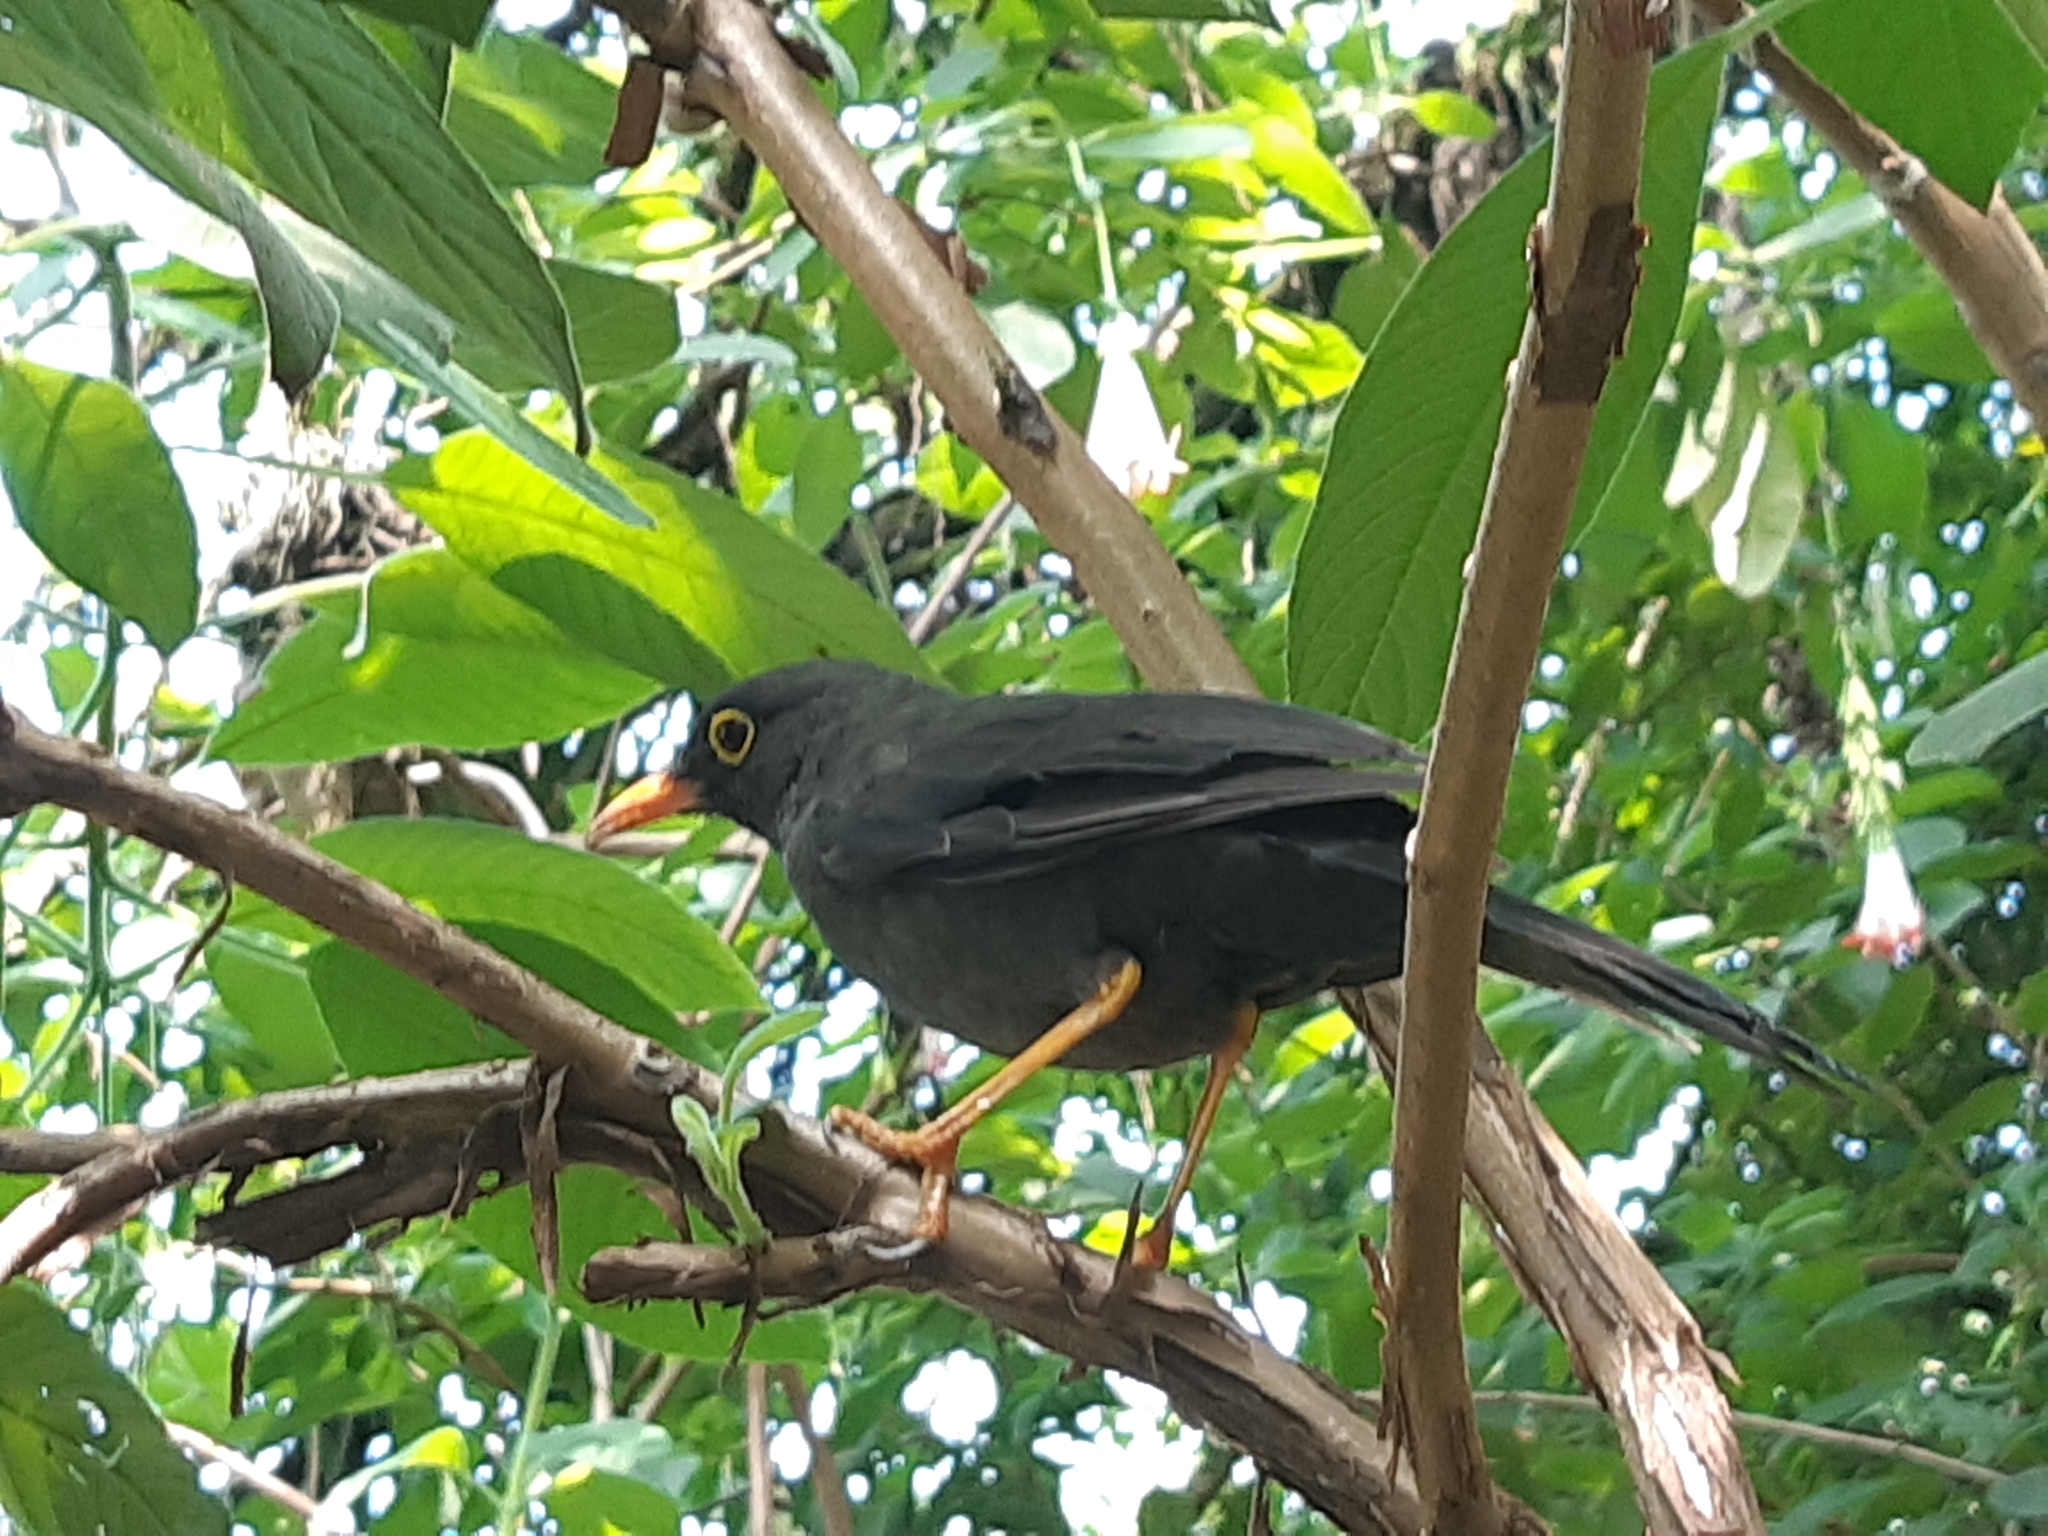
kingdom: Animalia
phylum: Chordata
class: Aves
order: Passeriformes
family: Turdidae
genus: Turdus
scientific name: Turdus fuscater
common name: Great thrush
